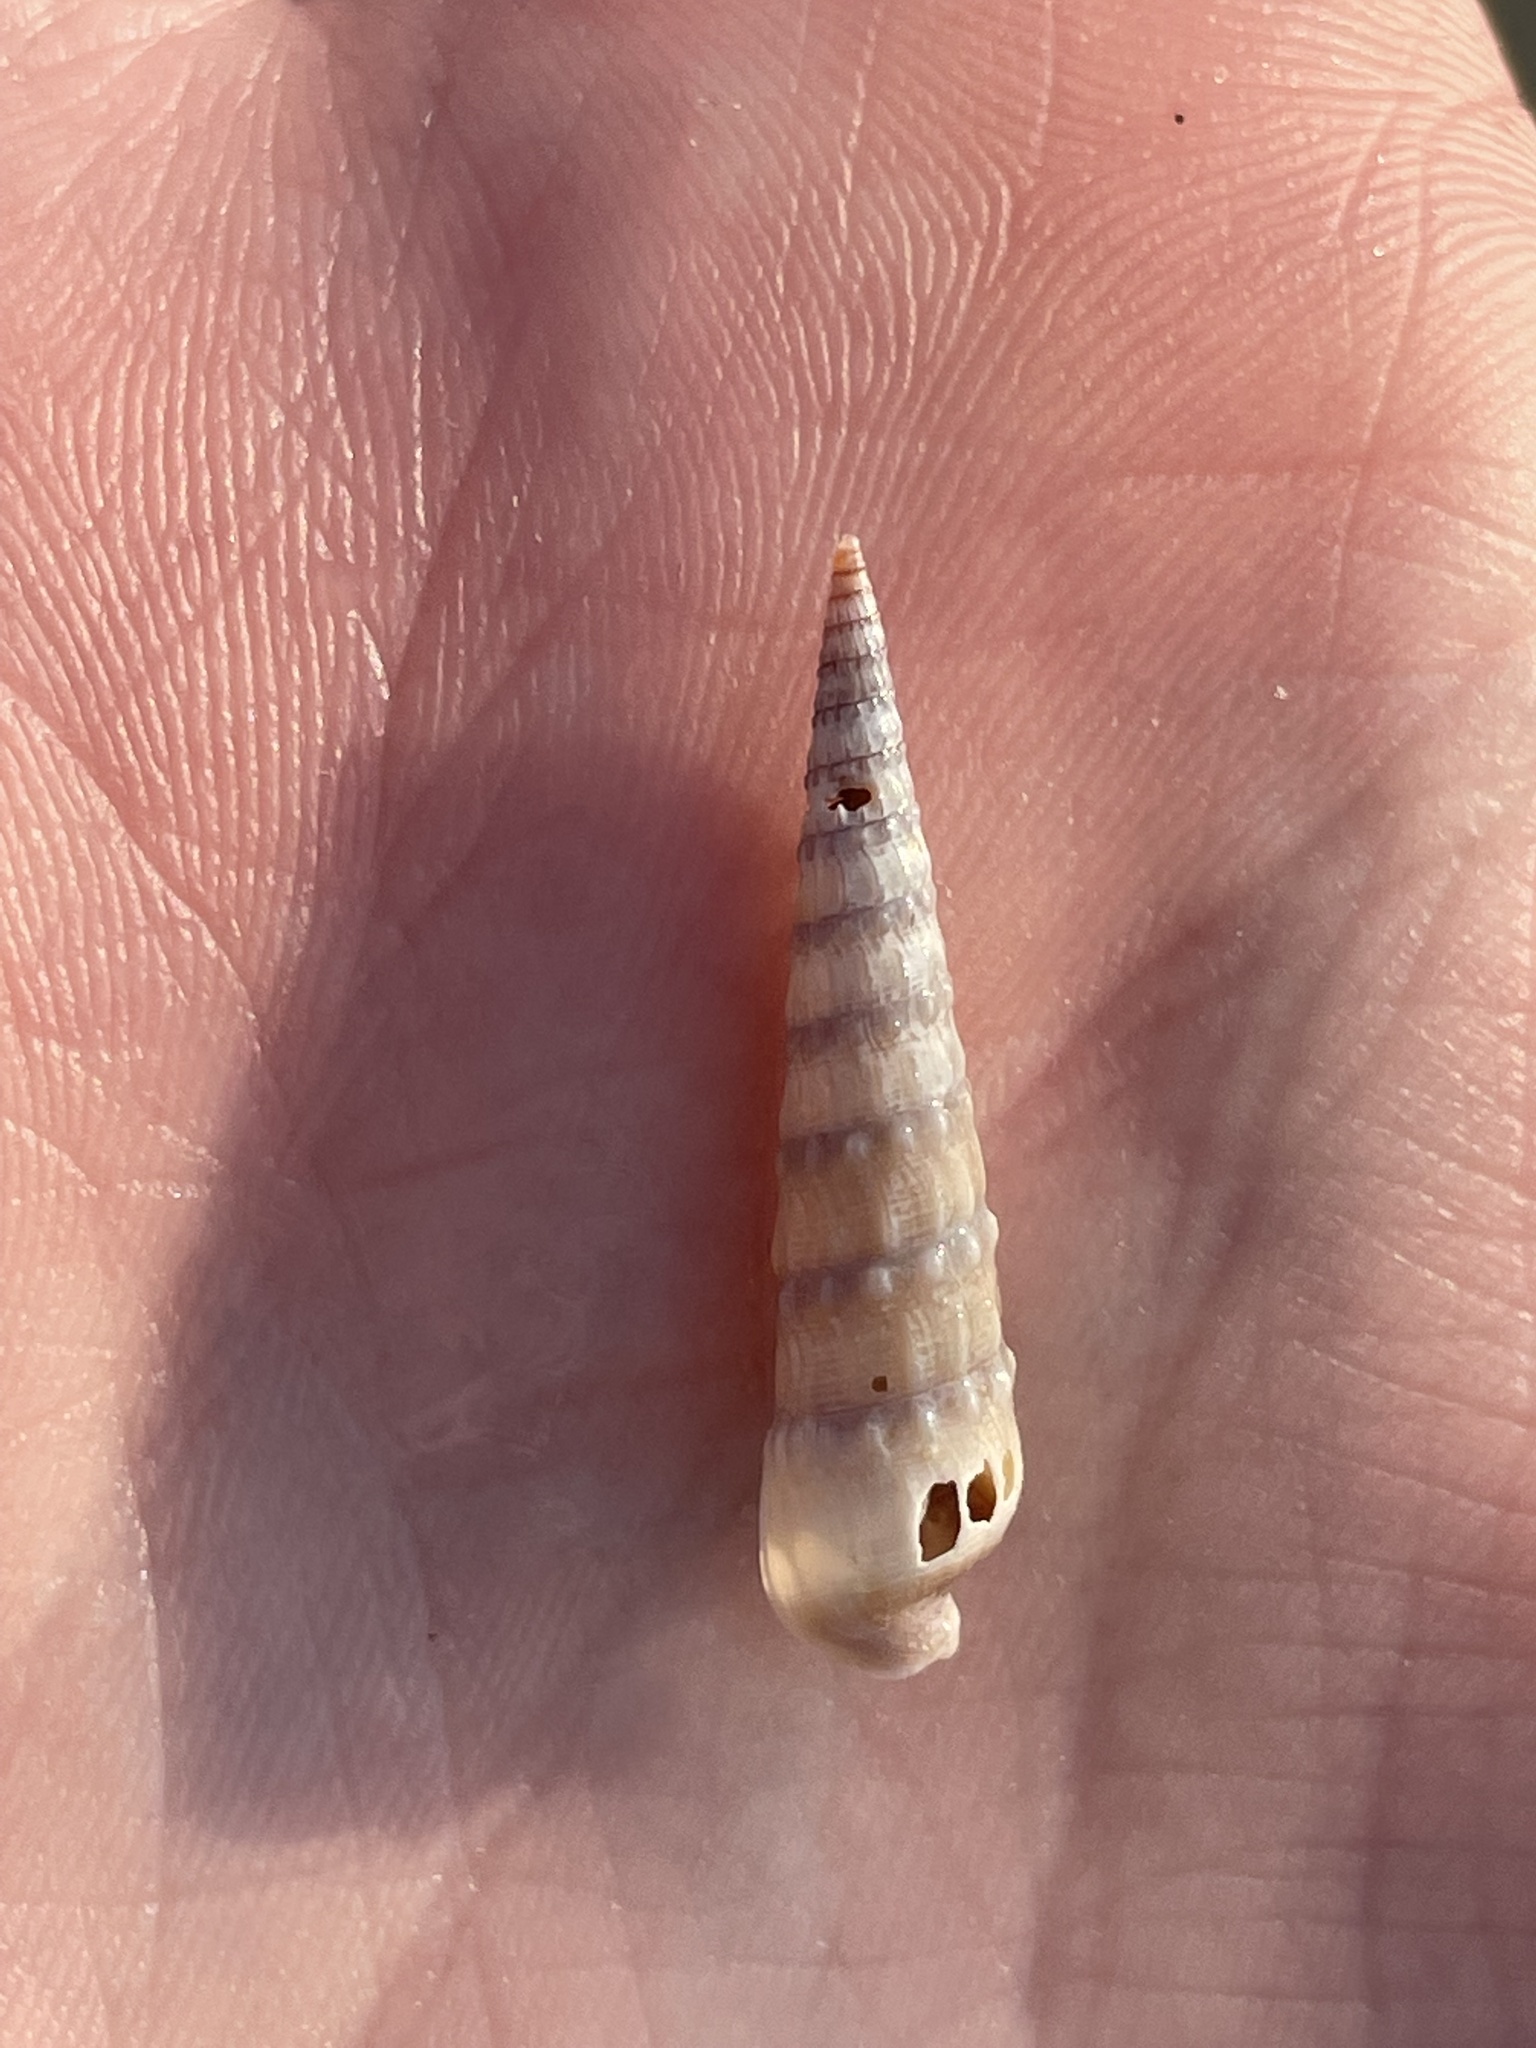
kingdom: Animalia
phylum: Mollusca
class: Gastropoda
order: Neogastropoda
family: Terebridae
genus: Neoterebra
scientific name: Neoterebra dislocata
